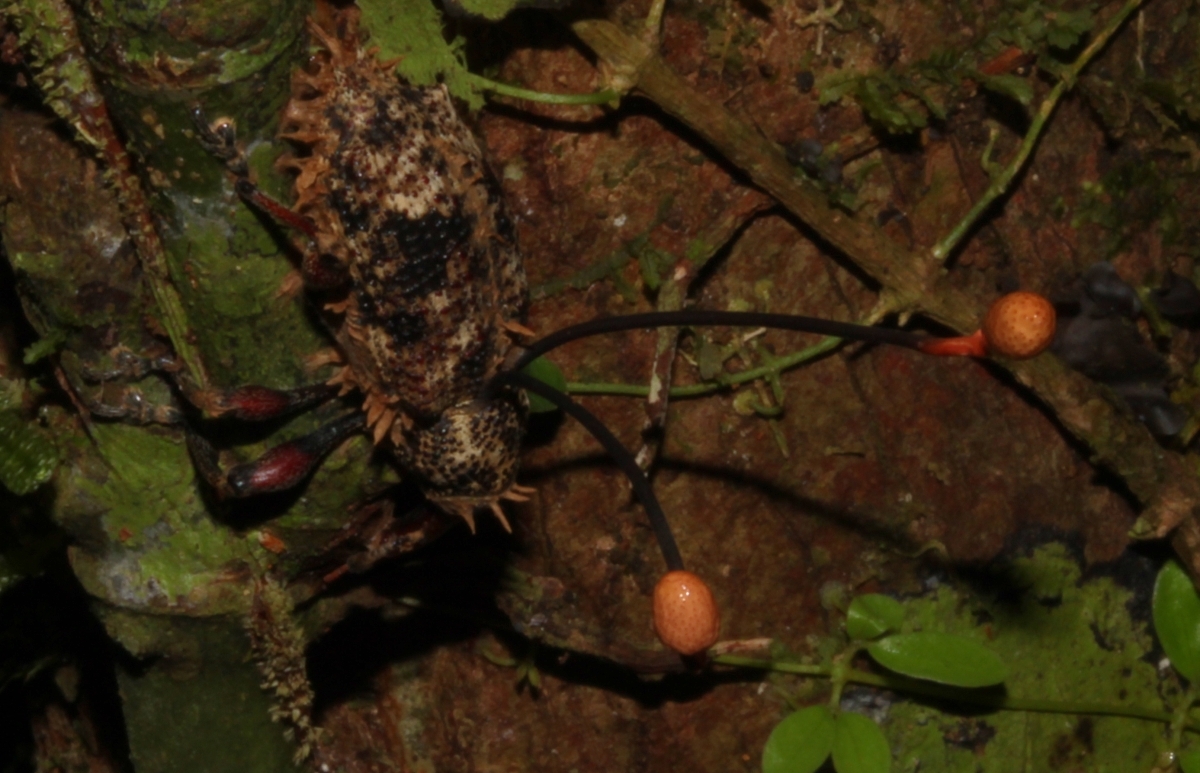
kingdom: Fungi
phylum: Ascomycota
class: Sordariomycetes
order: Hypocreales
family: Ophiocordycipitaceae
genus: Ophiocordyceps
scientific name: Ophiocordyceps curculionum
